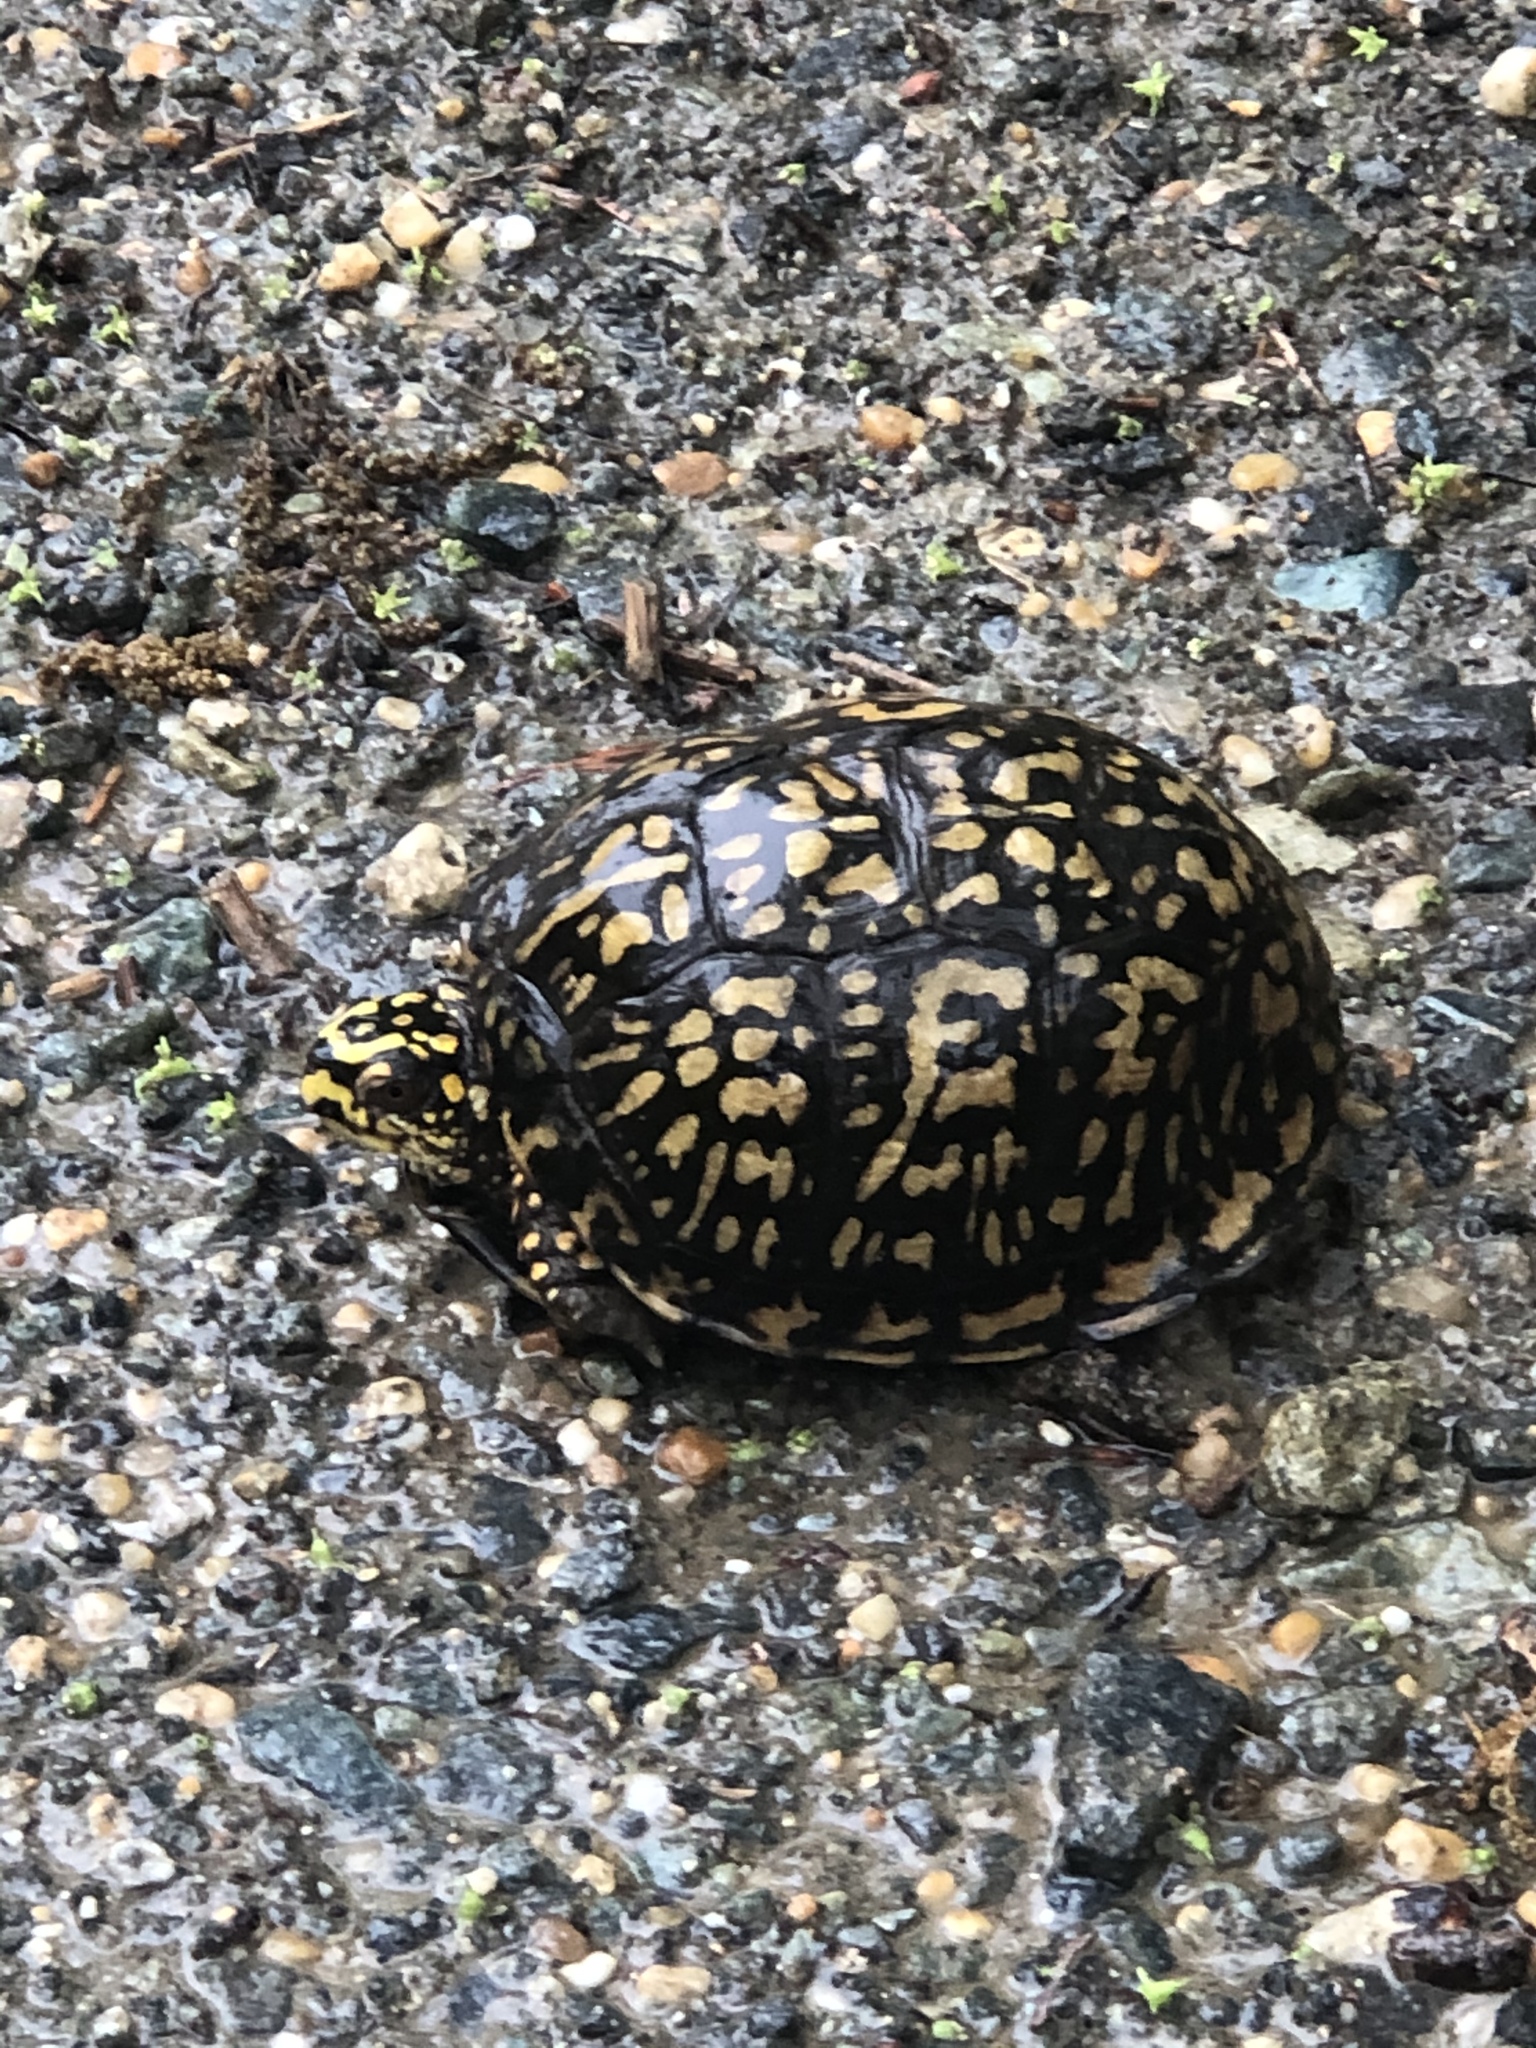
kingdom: Animalia
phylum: Chordata
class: Testudines
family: Emydidae
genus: Terrapene
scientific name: Terrapene carolina
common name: Common box turtle
